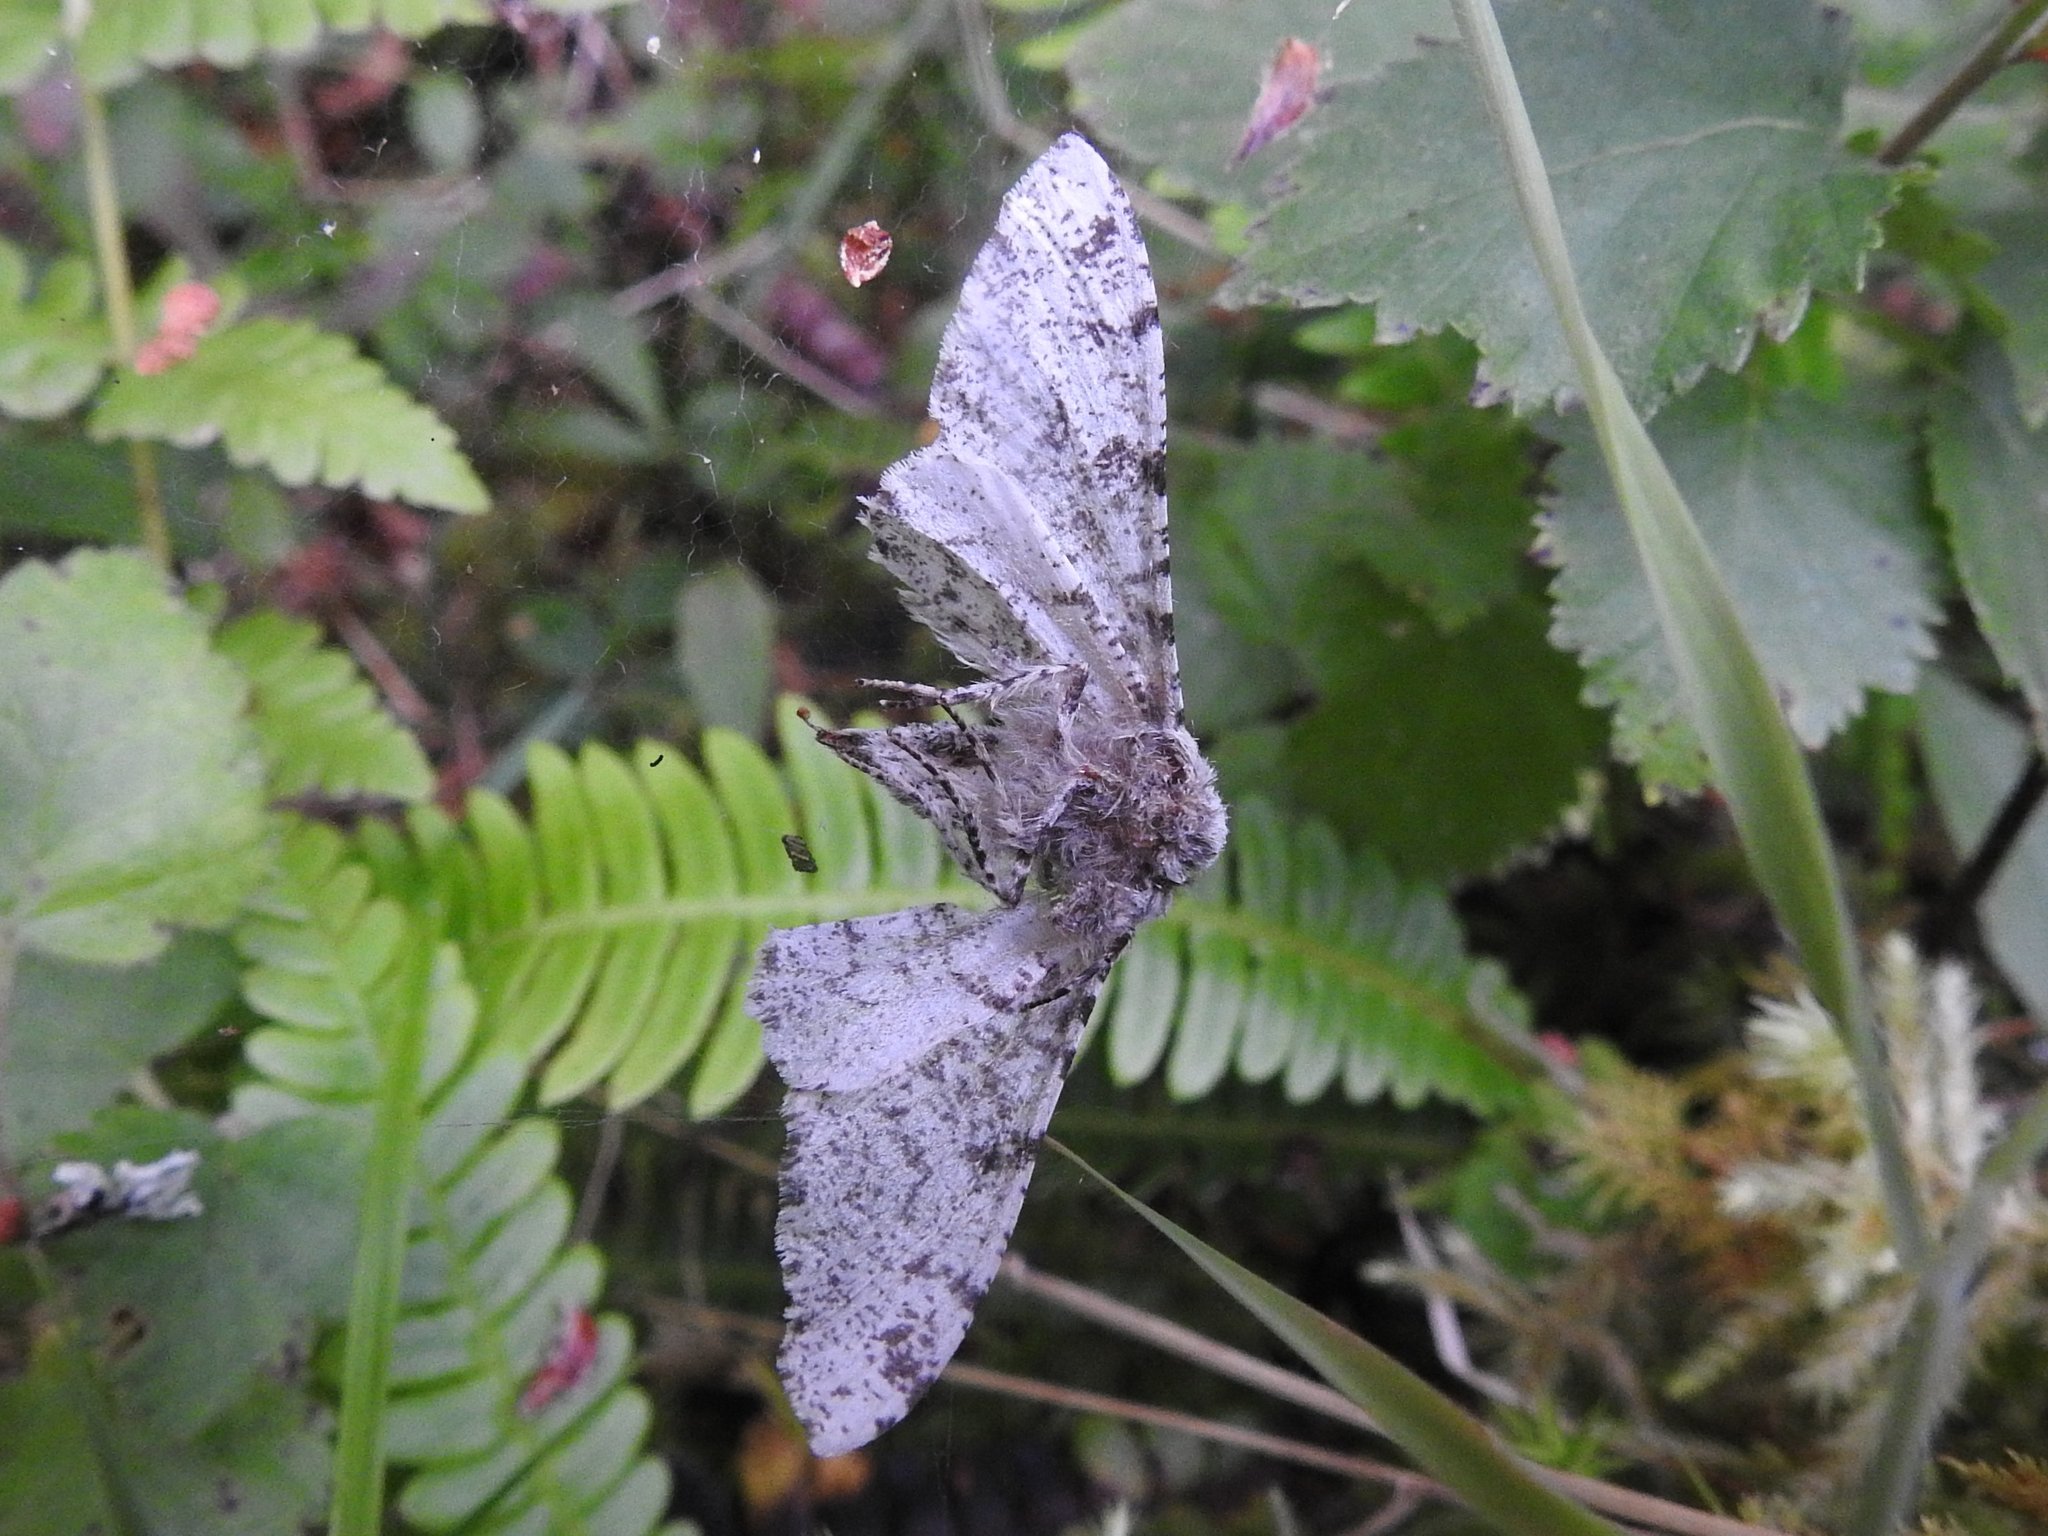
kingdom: Animalia
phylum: Arthropoda
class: Insecta
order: Lepidoptera
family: Geometridae
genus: Biston
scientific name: Biston betularia
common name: Peppered moth
